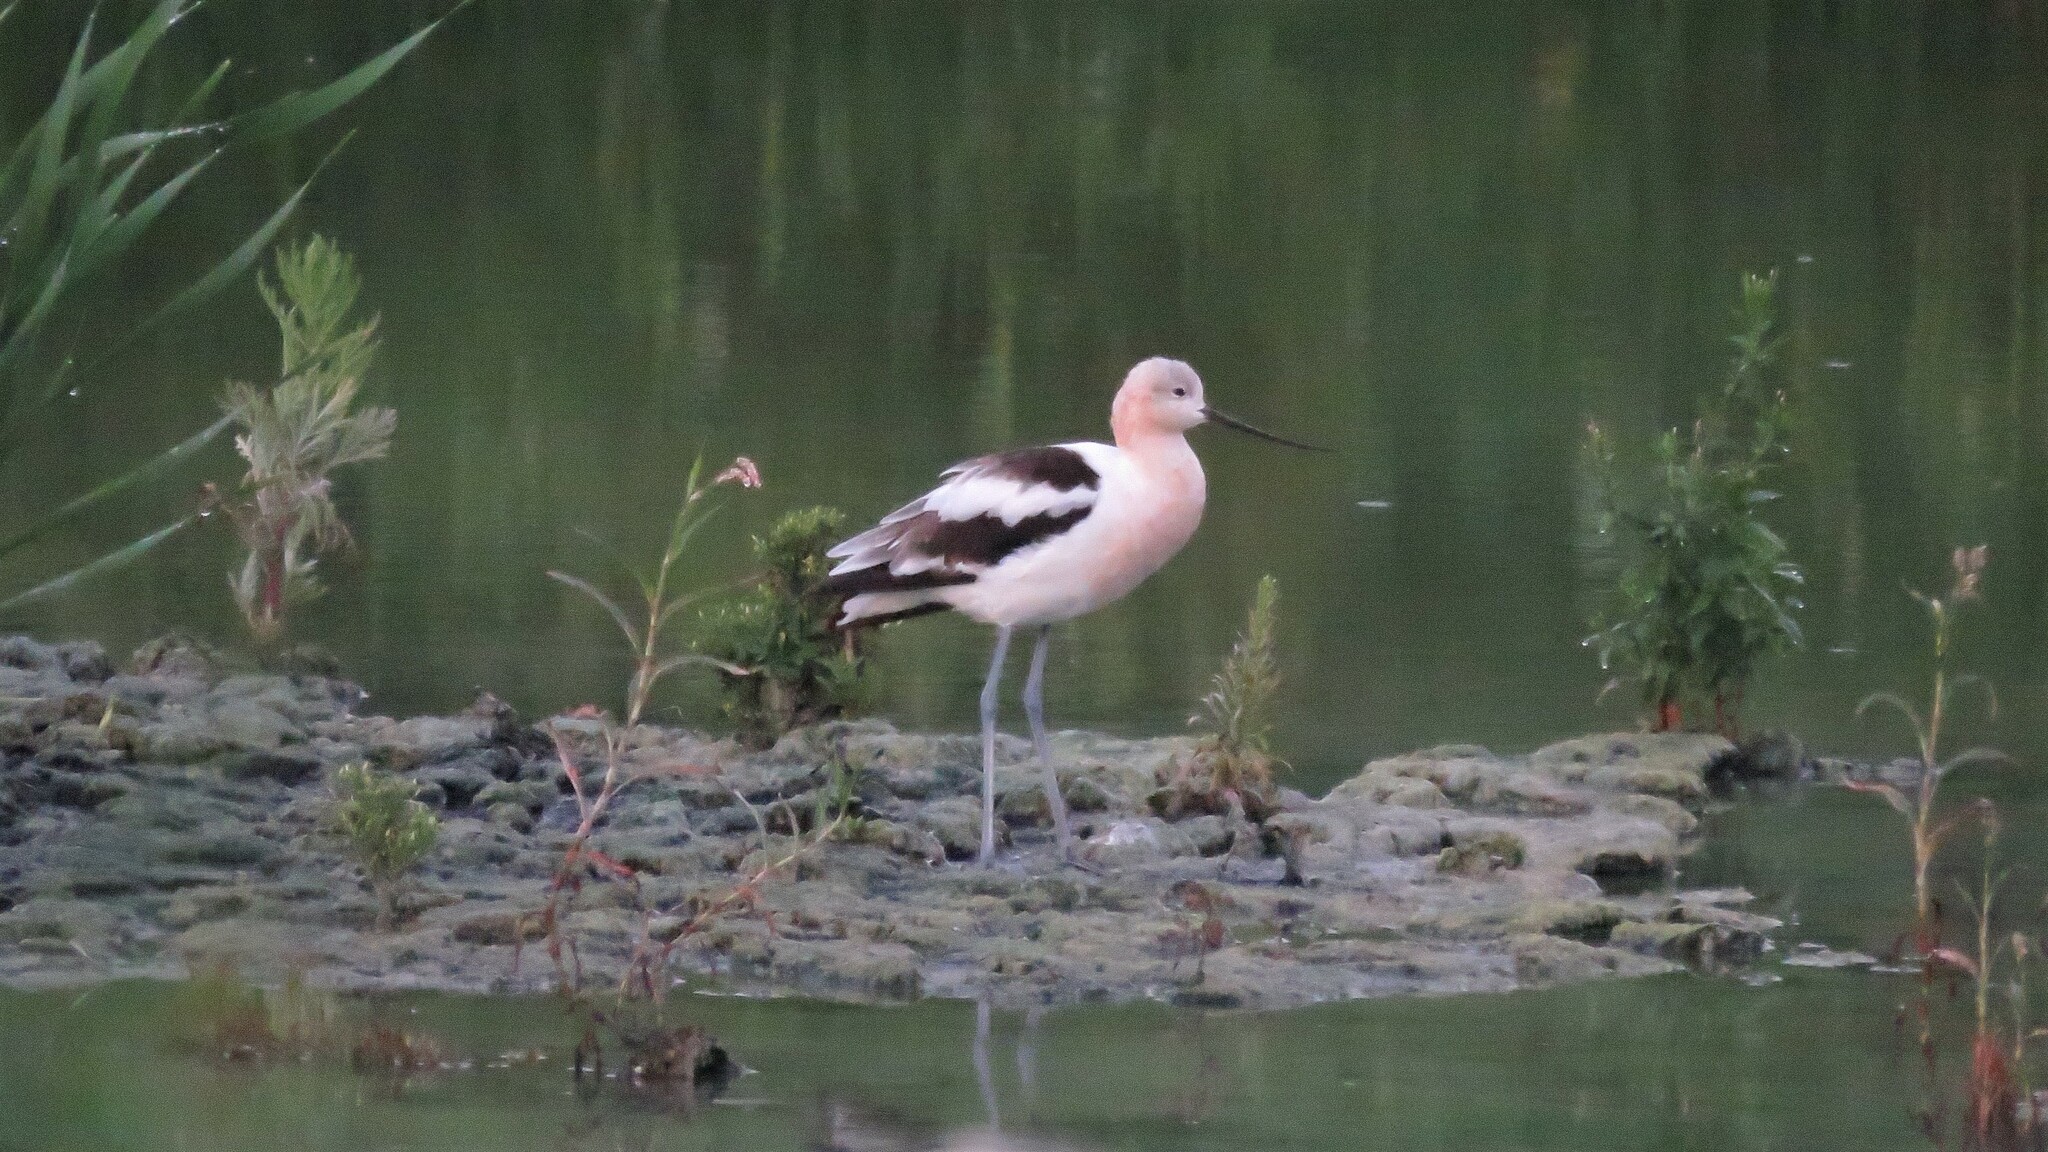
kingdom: Animalia
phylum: Chordata
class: Aves
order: Charadriiformes
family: Recurvirostridae
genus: Recurvirostra
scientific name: Recurvirostra americana
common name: American avocet
